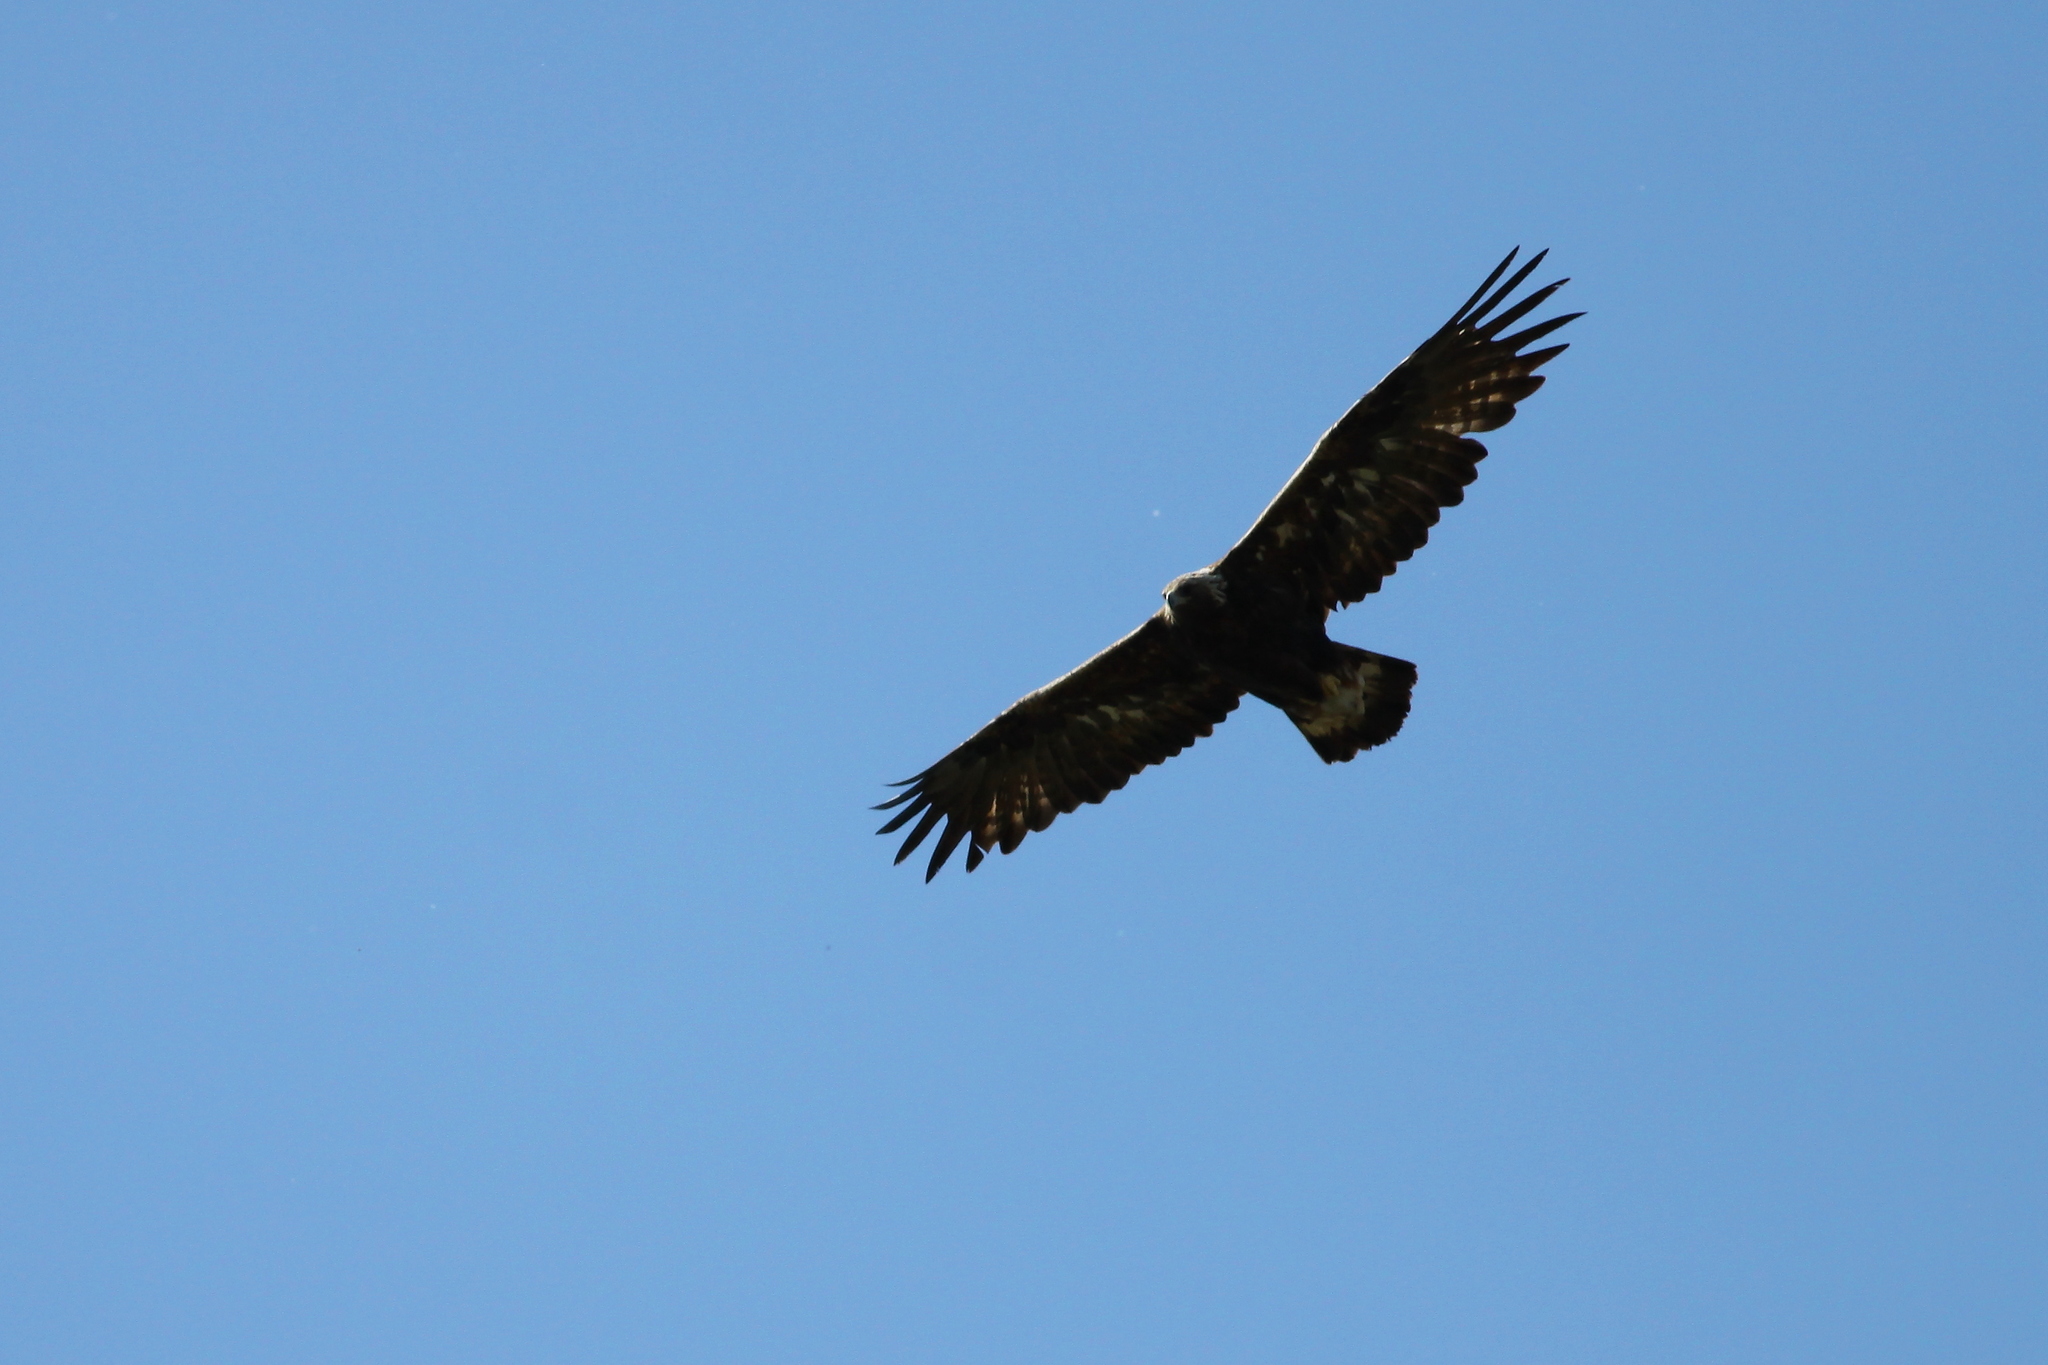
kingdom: Animalia
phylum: Chordata
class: Aves
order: Accipitriformes
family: Accipitridae
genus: Aquila
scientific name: Aquila chrysaetos
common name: Golden eagle
